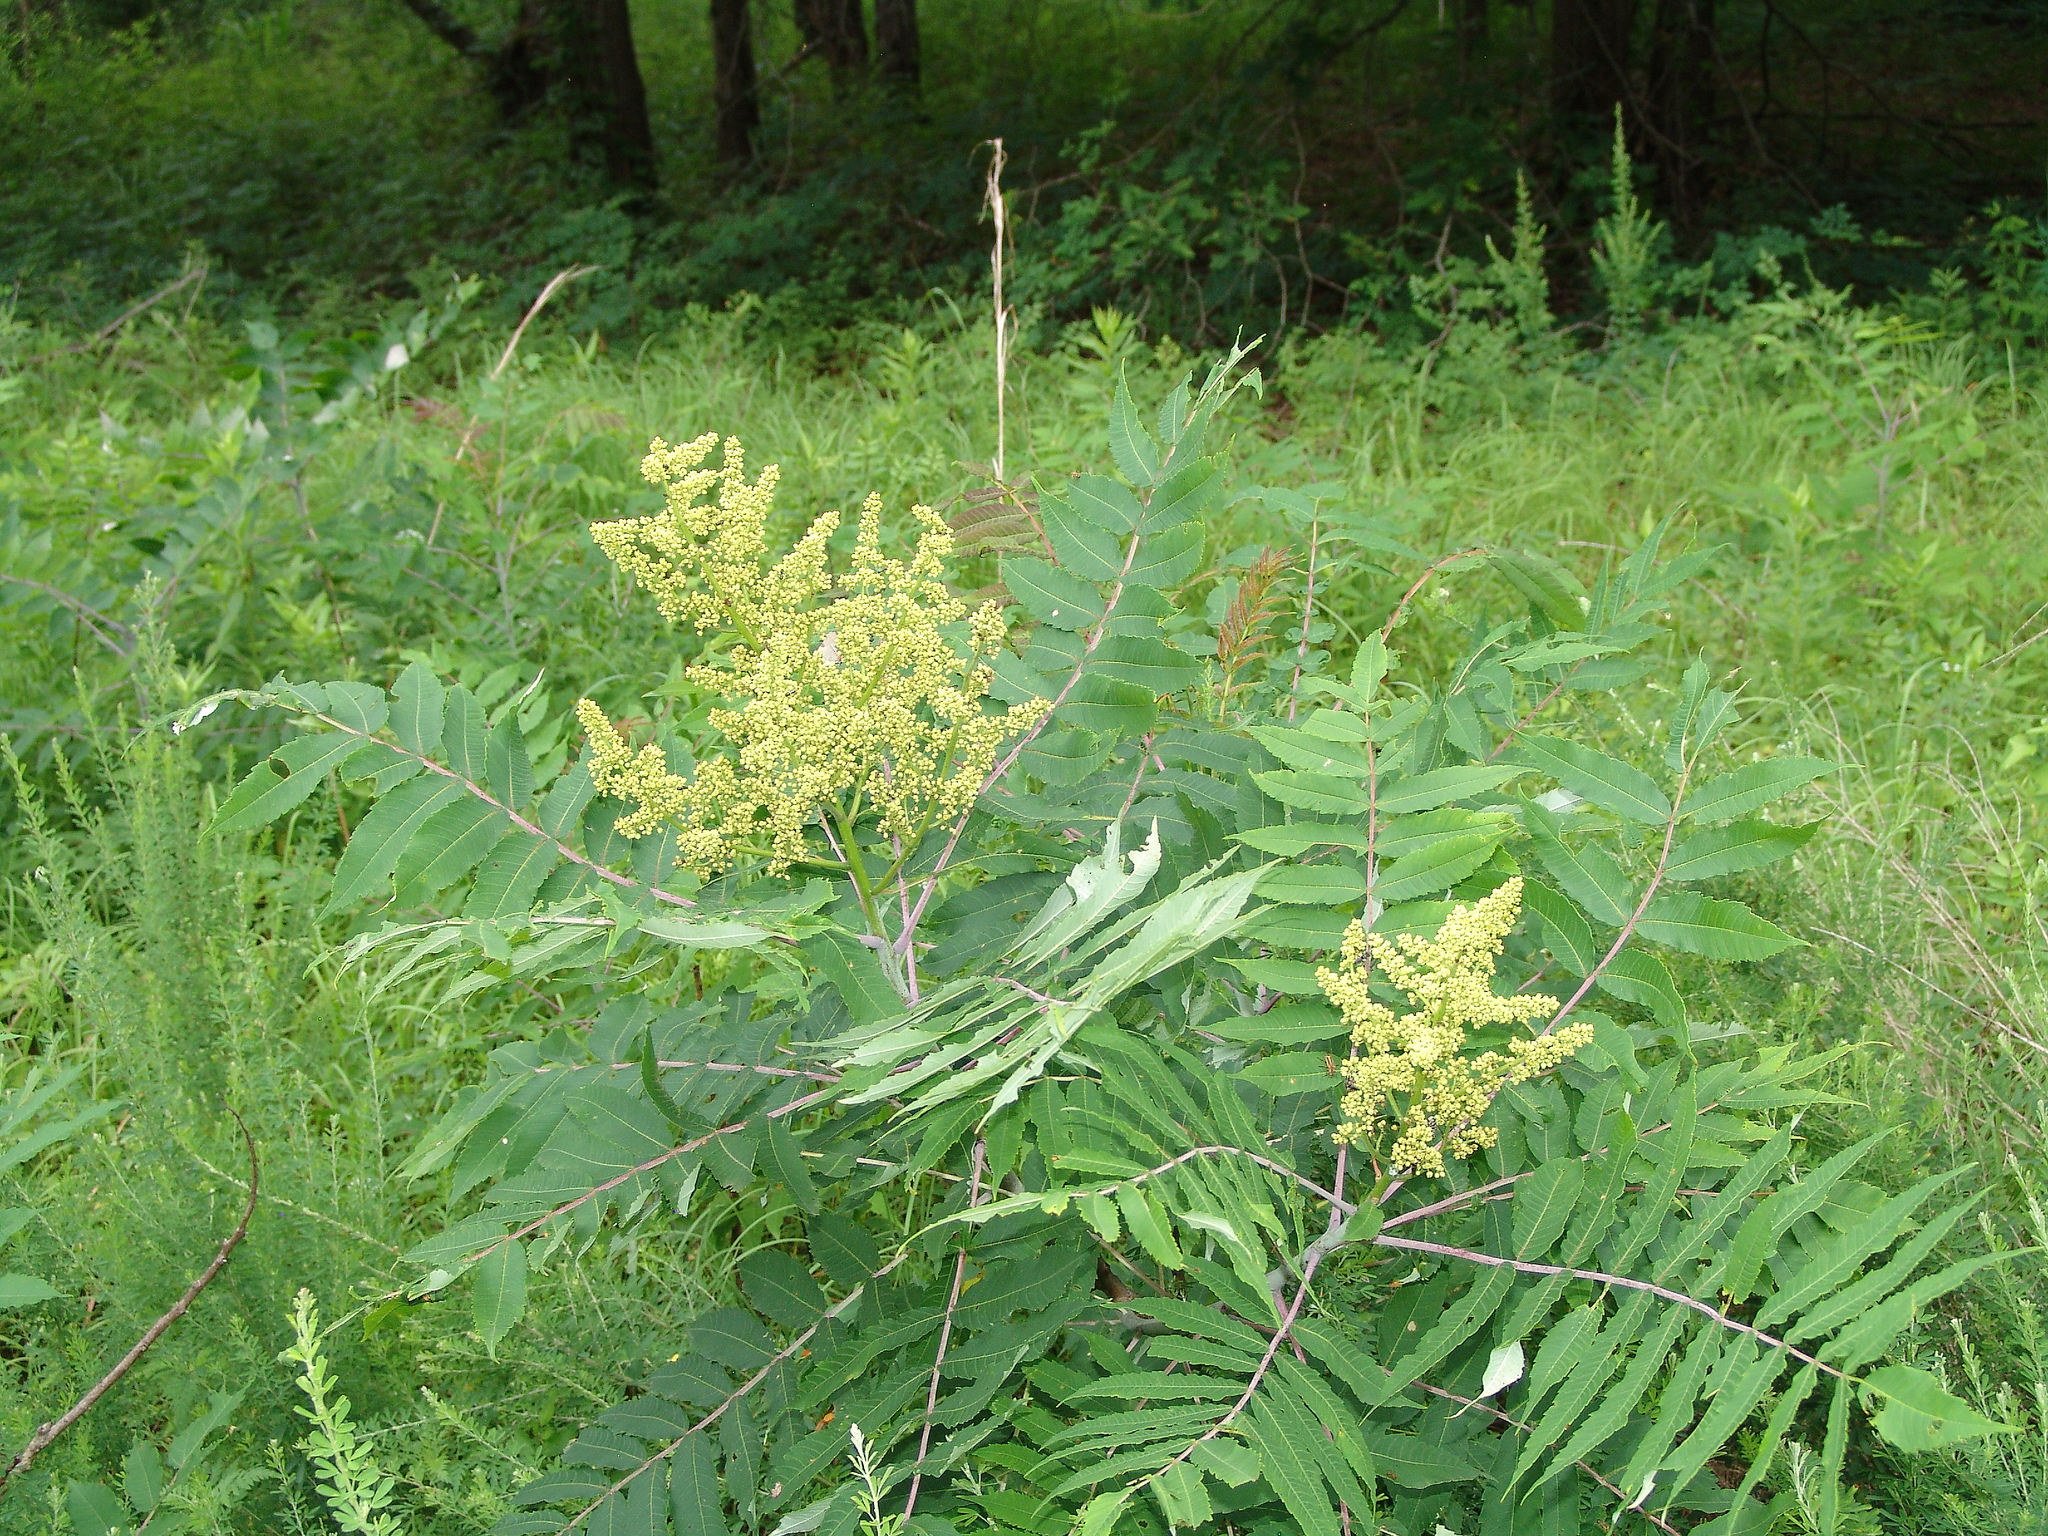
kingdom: Plantae
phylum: Tracheophyta
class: Magnoliopsida
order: Sapindales
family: Anacardiaceae
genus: Rhus
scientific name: Rhus glabra
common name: Scarlet sumac
